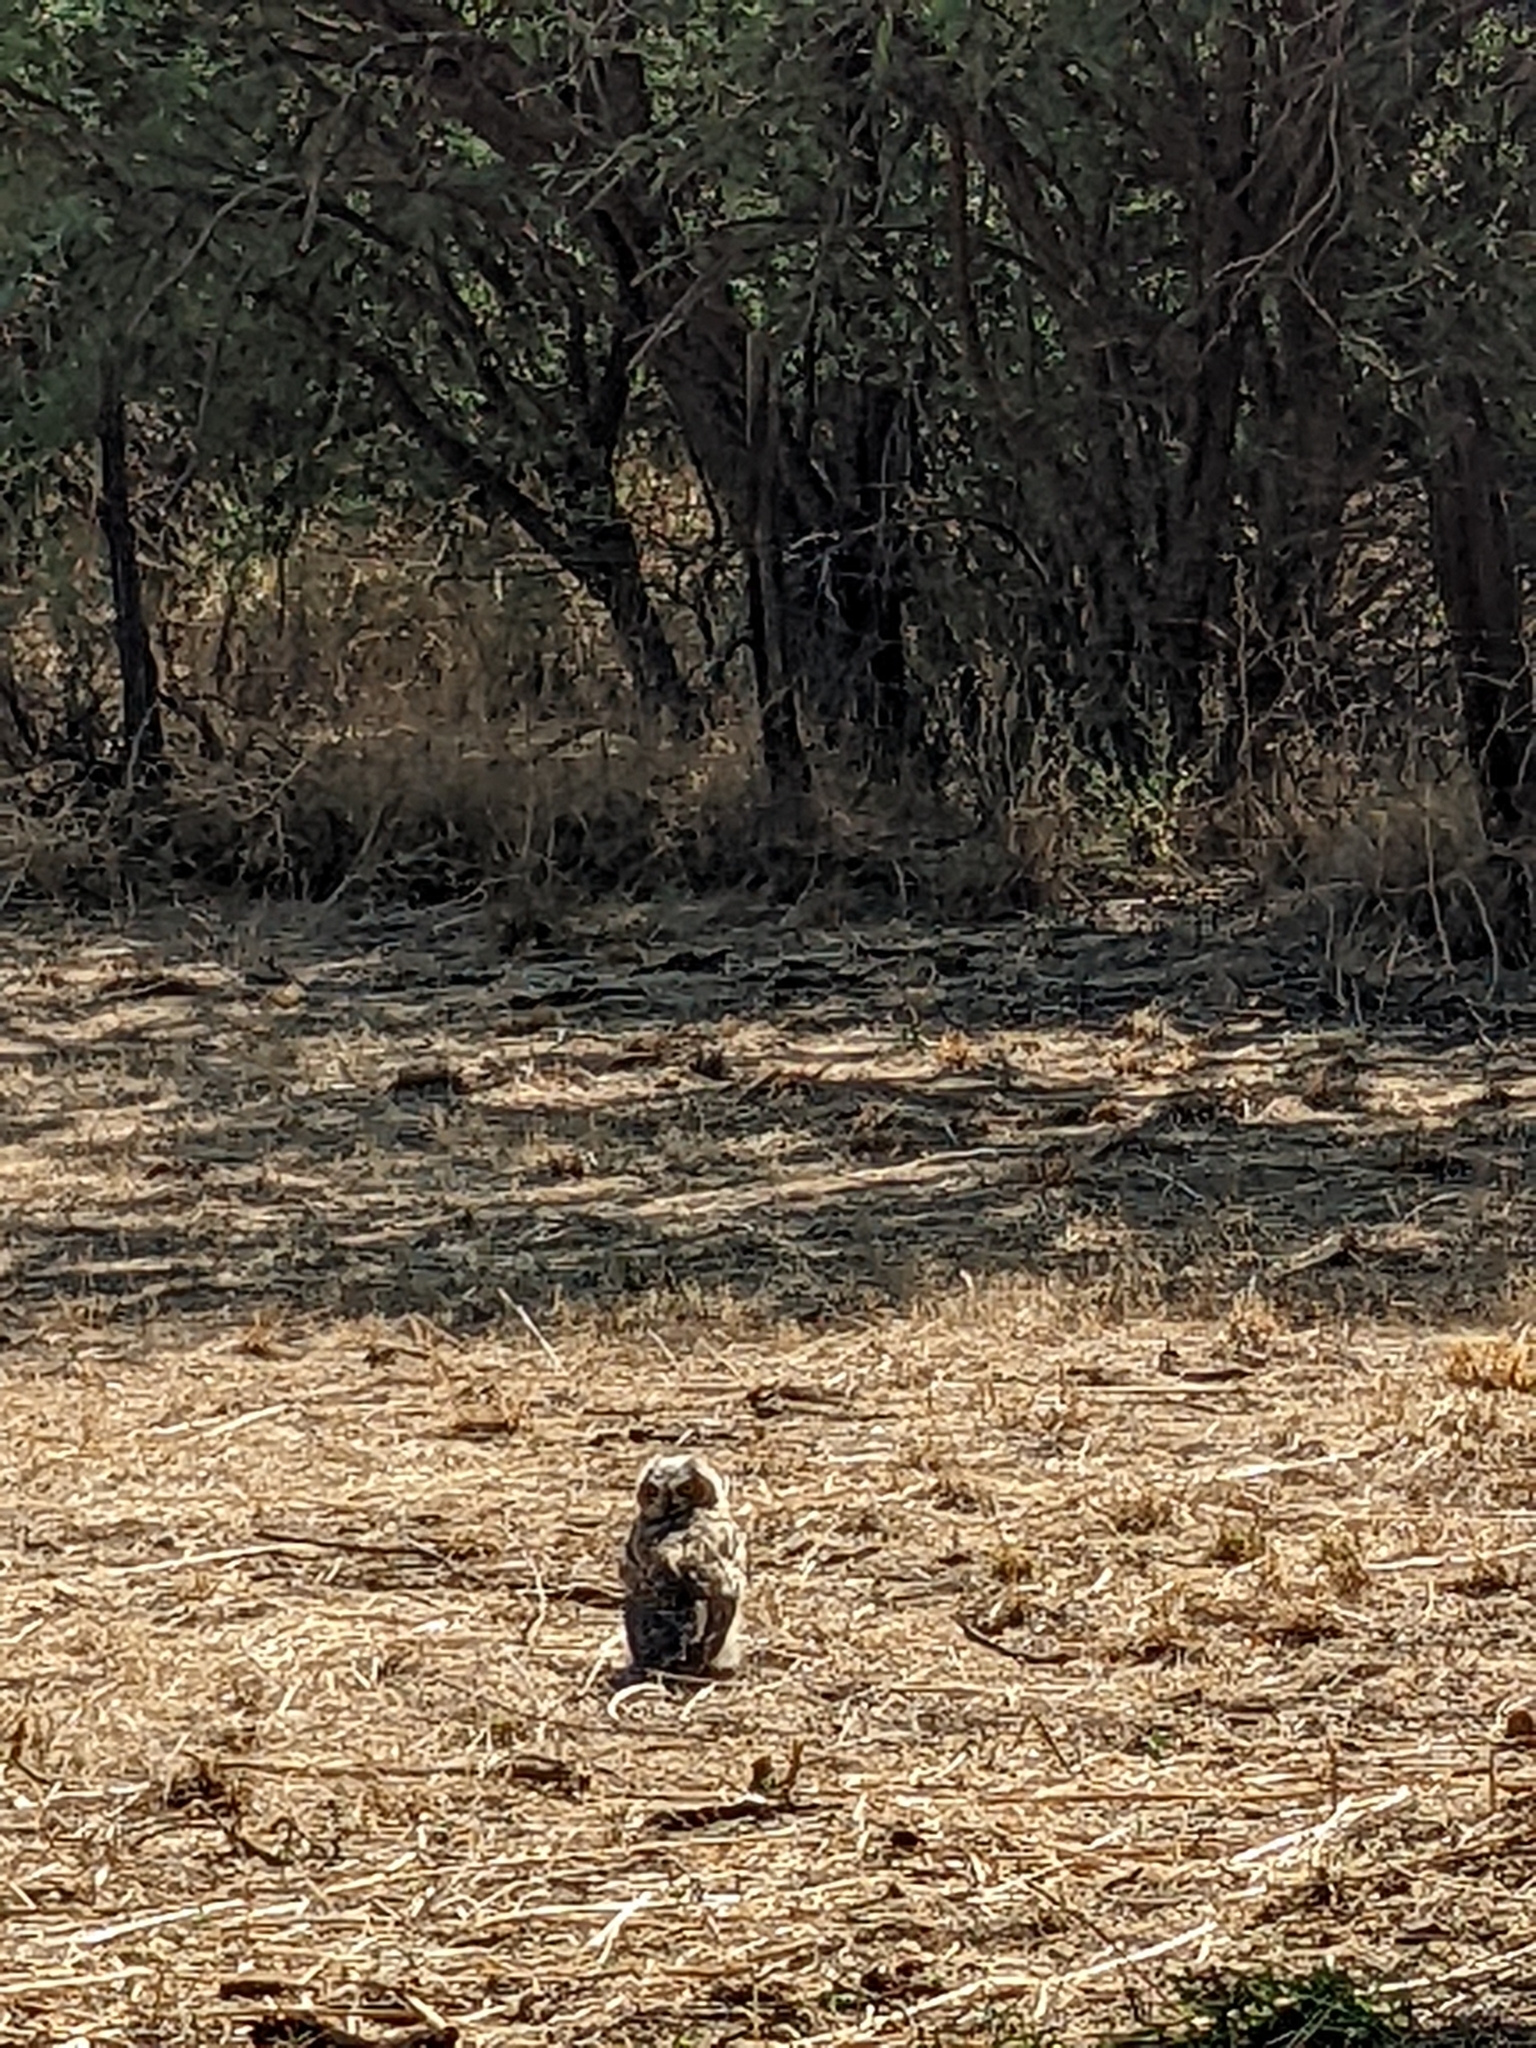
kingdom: Animalia
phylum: Chordata
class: Aves
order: Strigiformes
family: Strigidae
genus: Bubo
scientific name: Bubo virginianus
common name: Great horned owl
